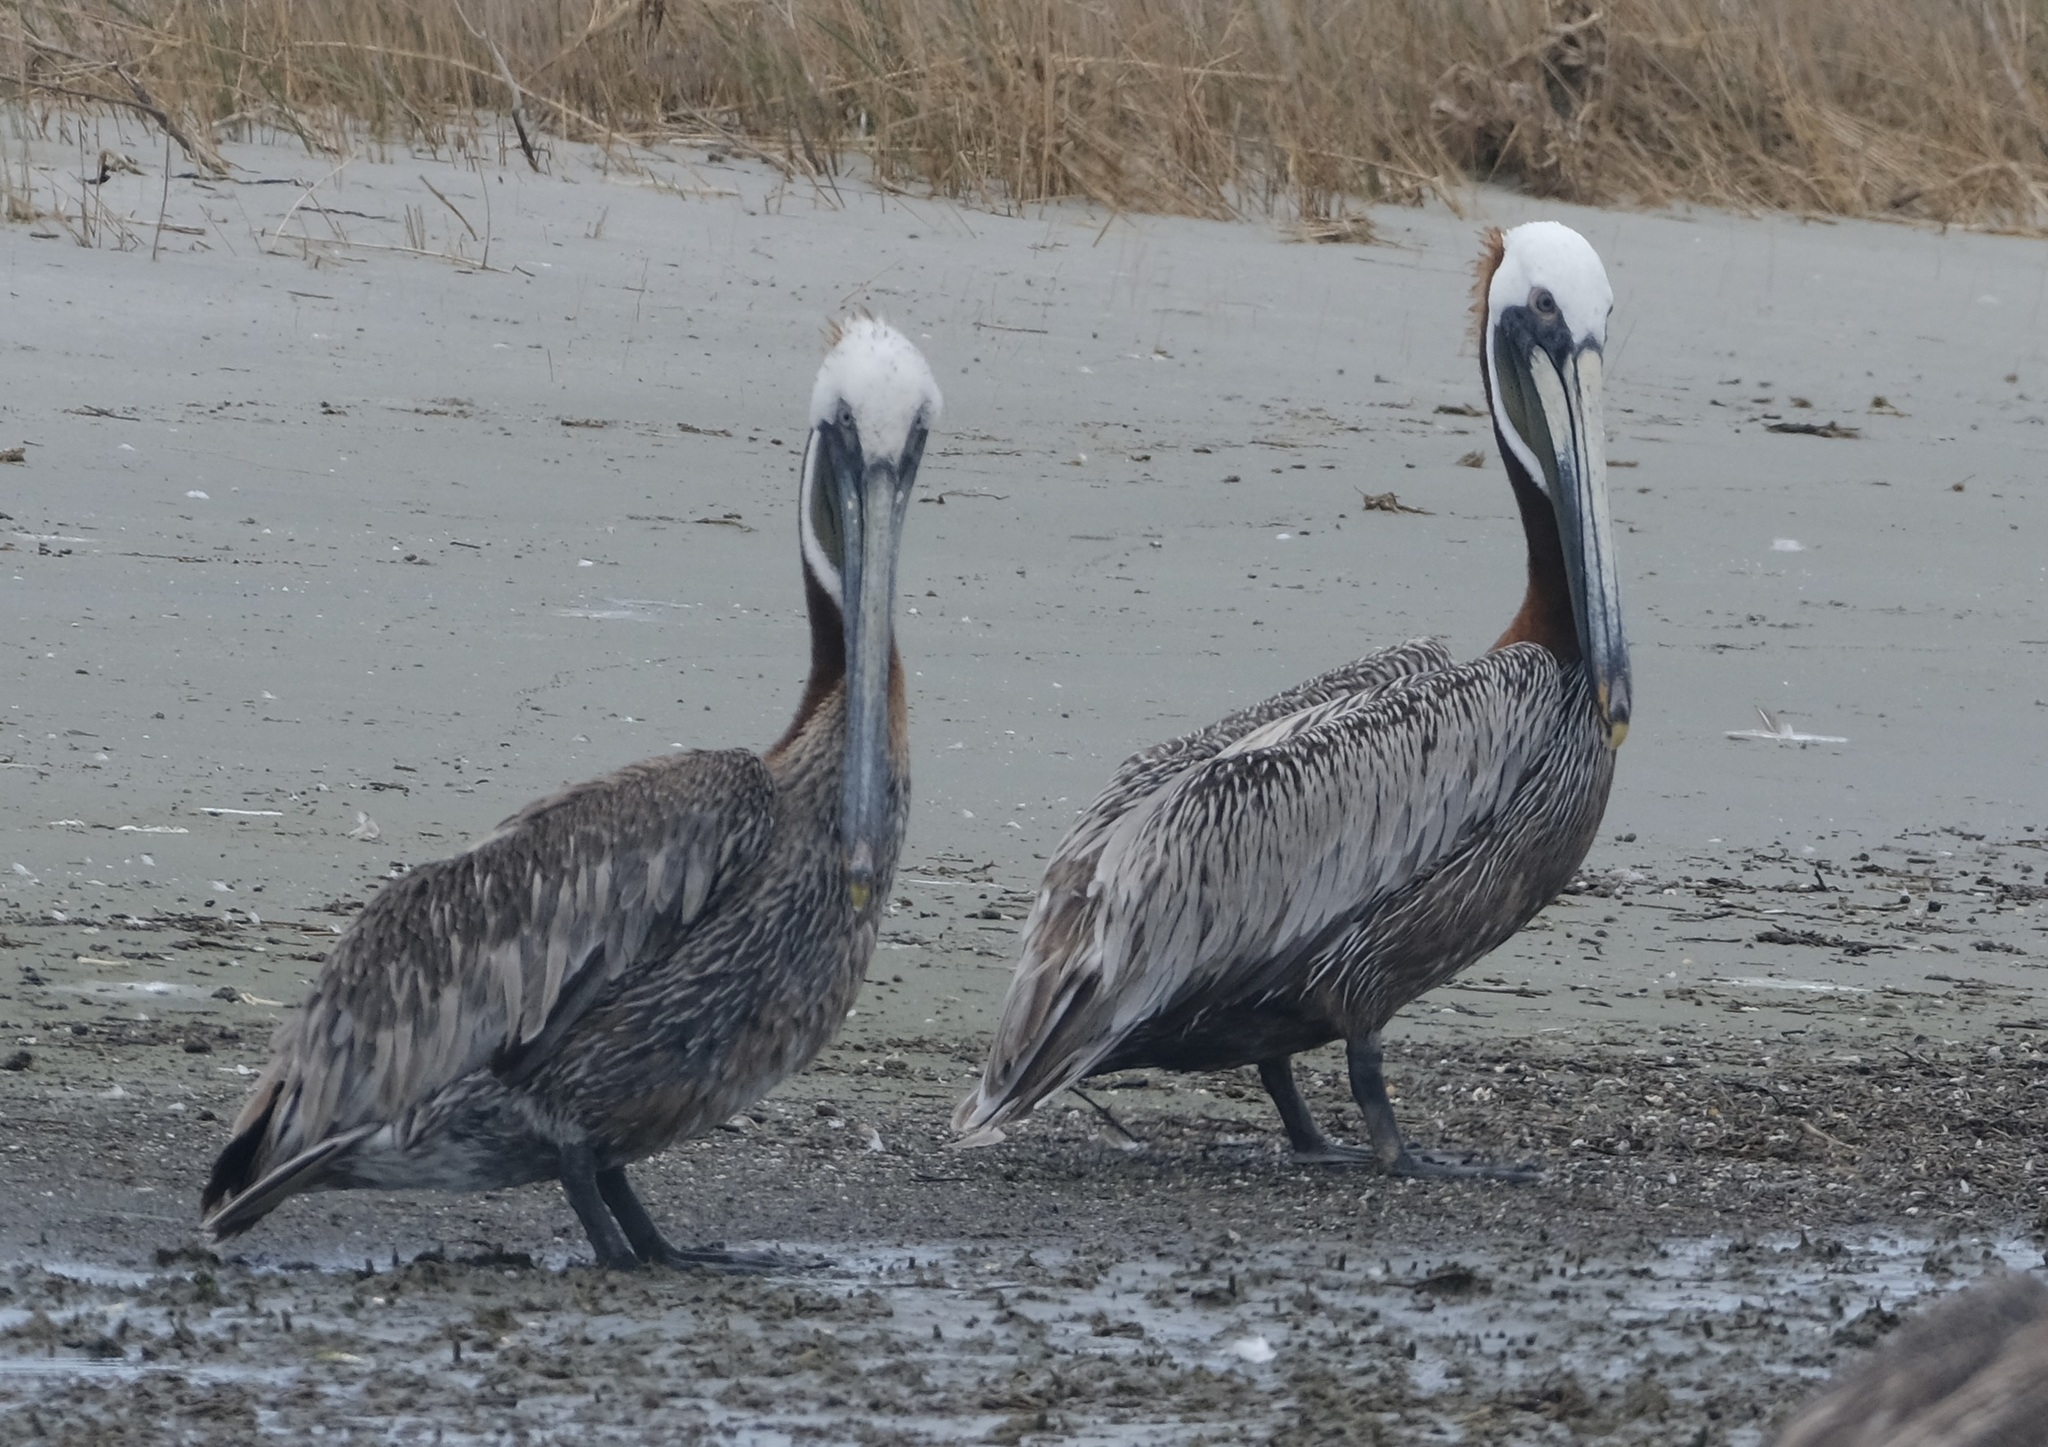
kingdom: Animalia
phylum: Chordata
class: Aves
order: Pelecaniformes
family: Pelecanidae
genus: Pelecanus
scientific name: Pelecanus occidentalis
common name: Brown pelican
